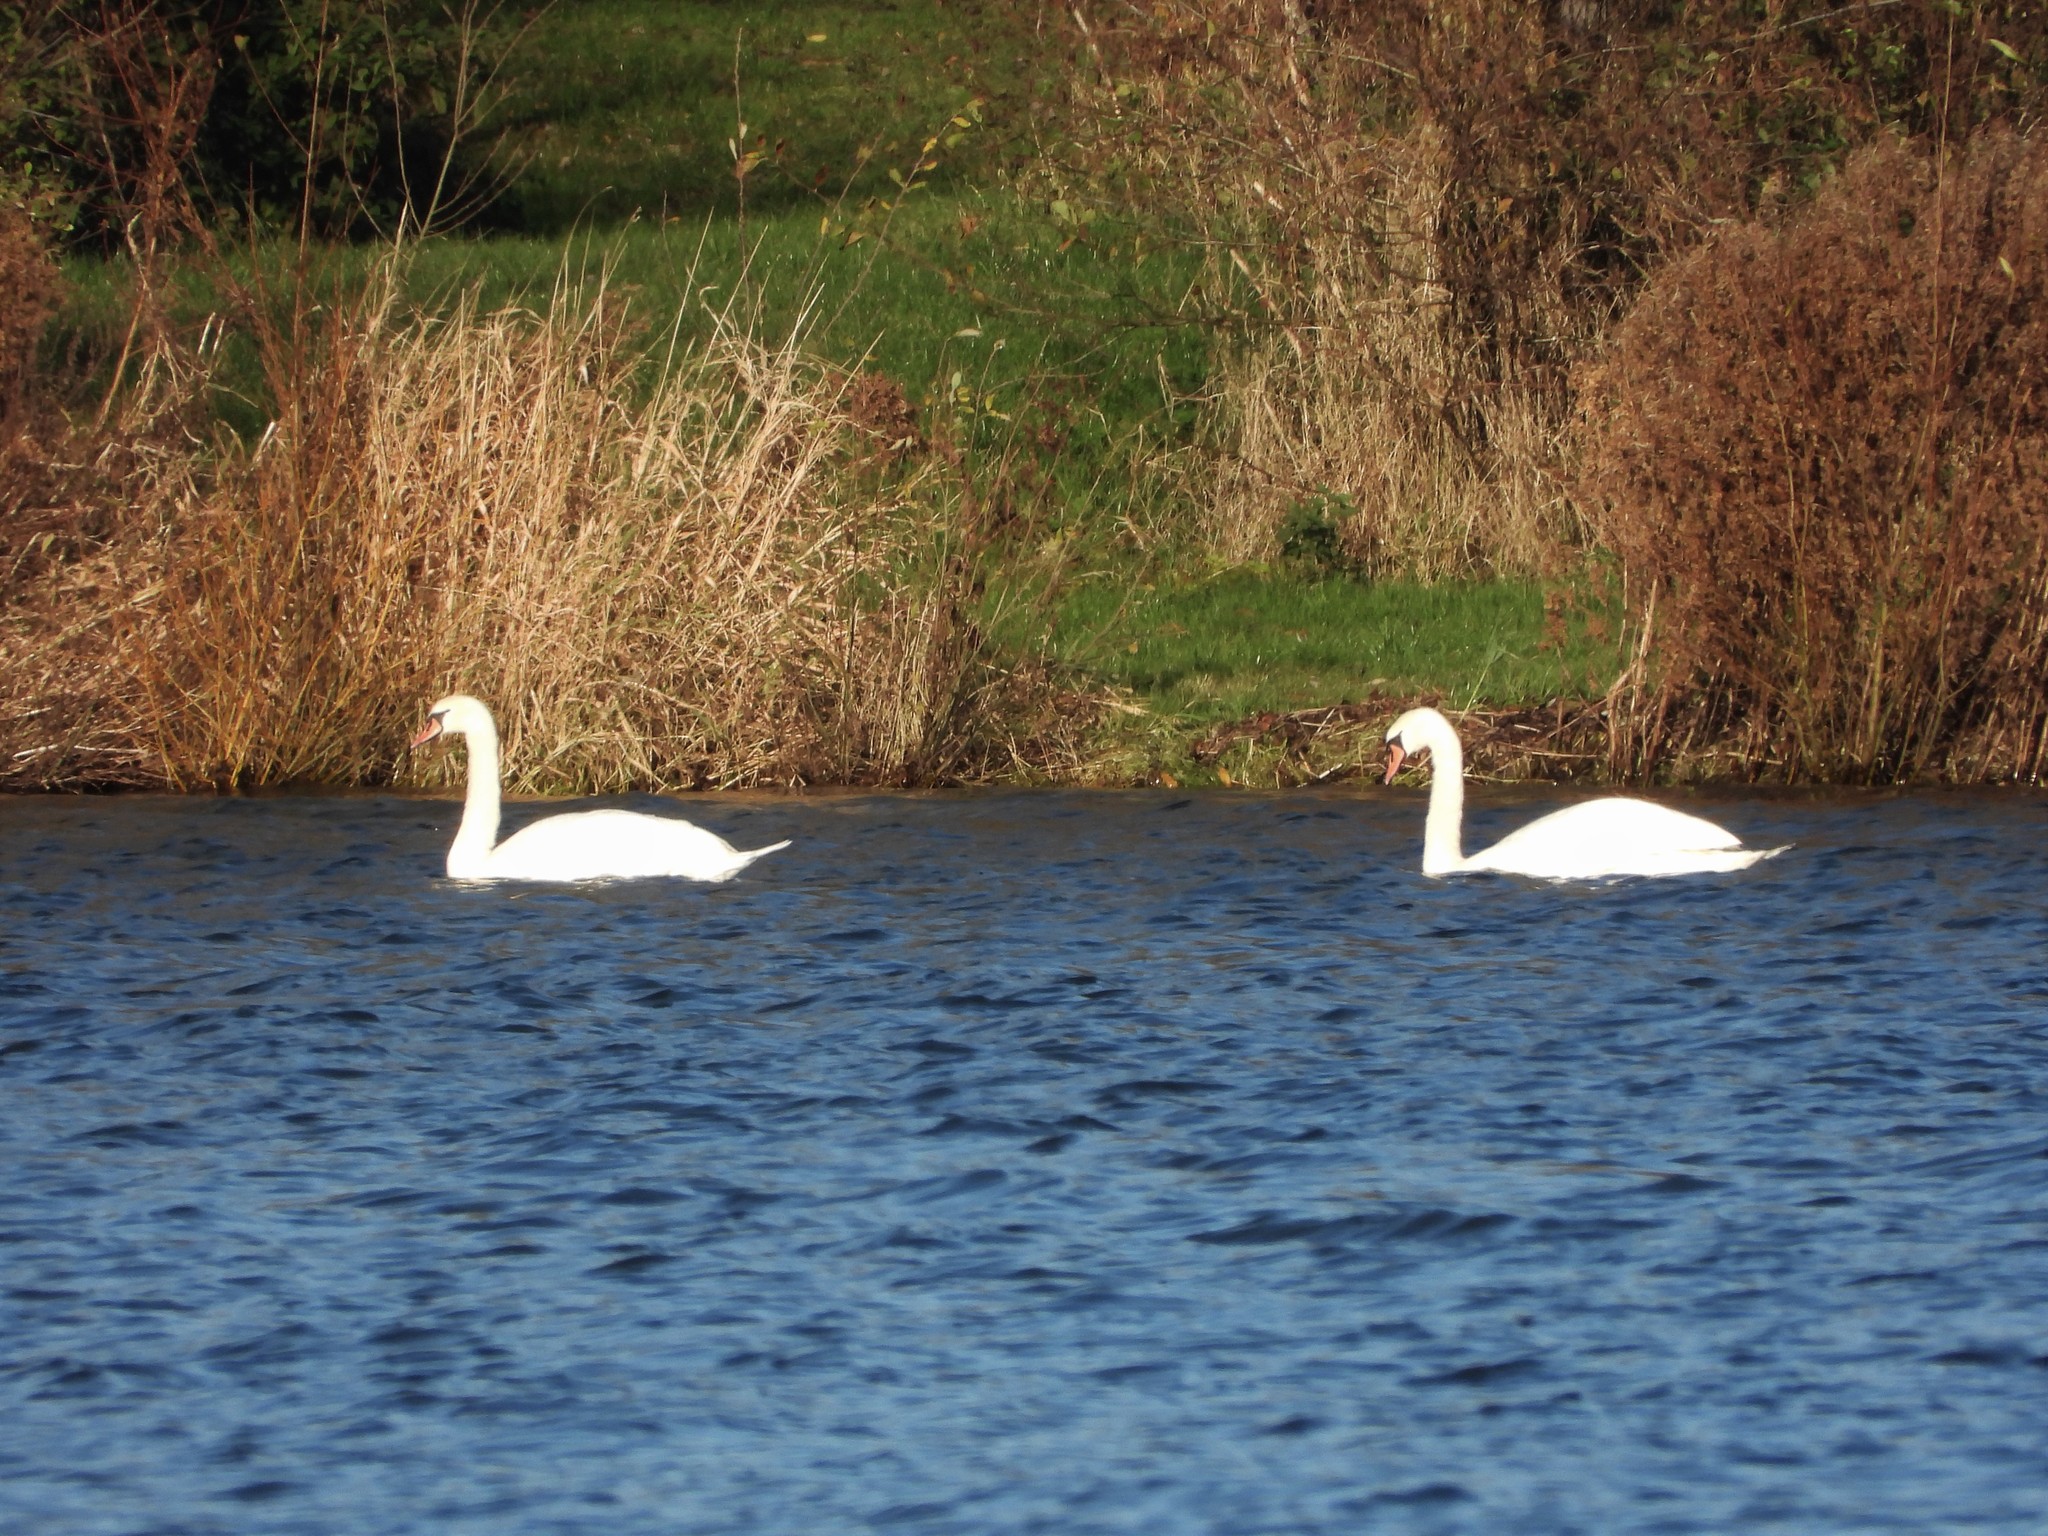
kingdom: Animalia
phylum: Chordata
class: Aves
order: Anseriformes
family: Anatidae
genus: Cygnus
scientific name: Cygnus olor
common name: Mute swan
